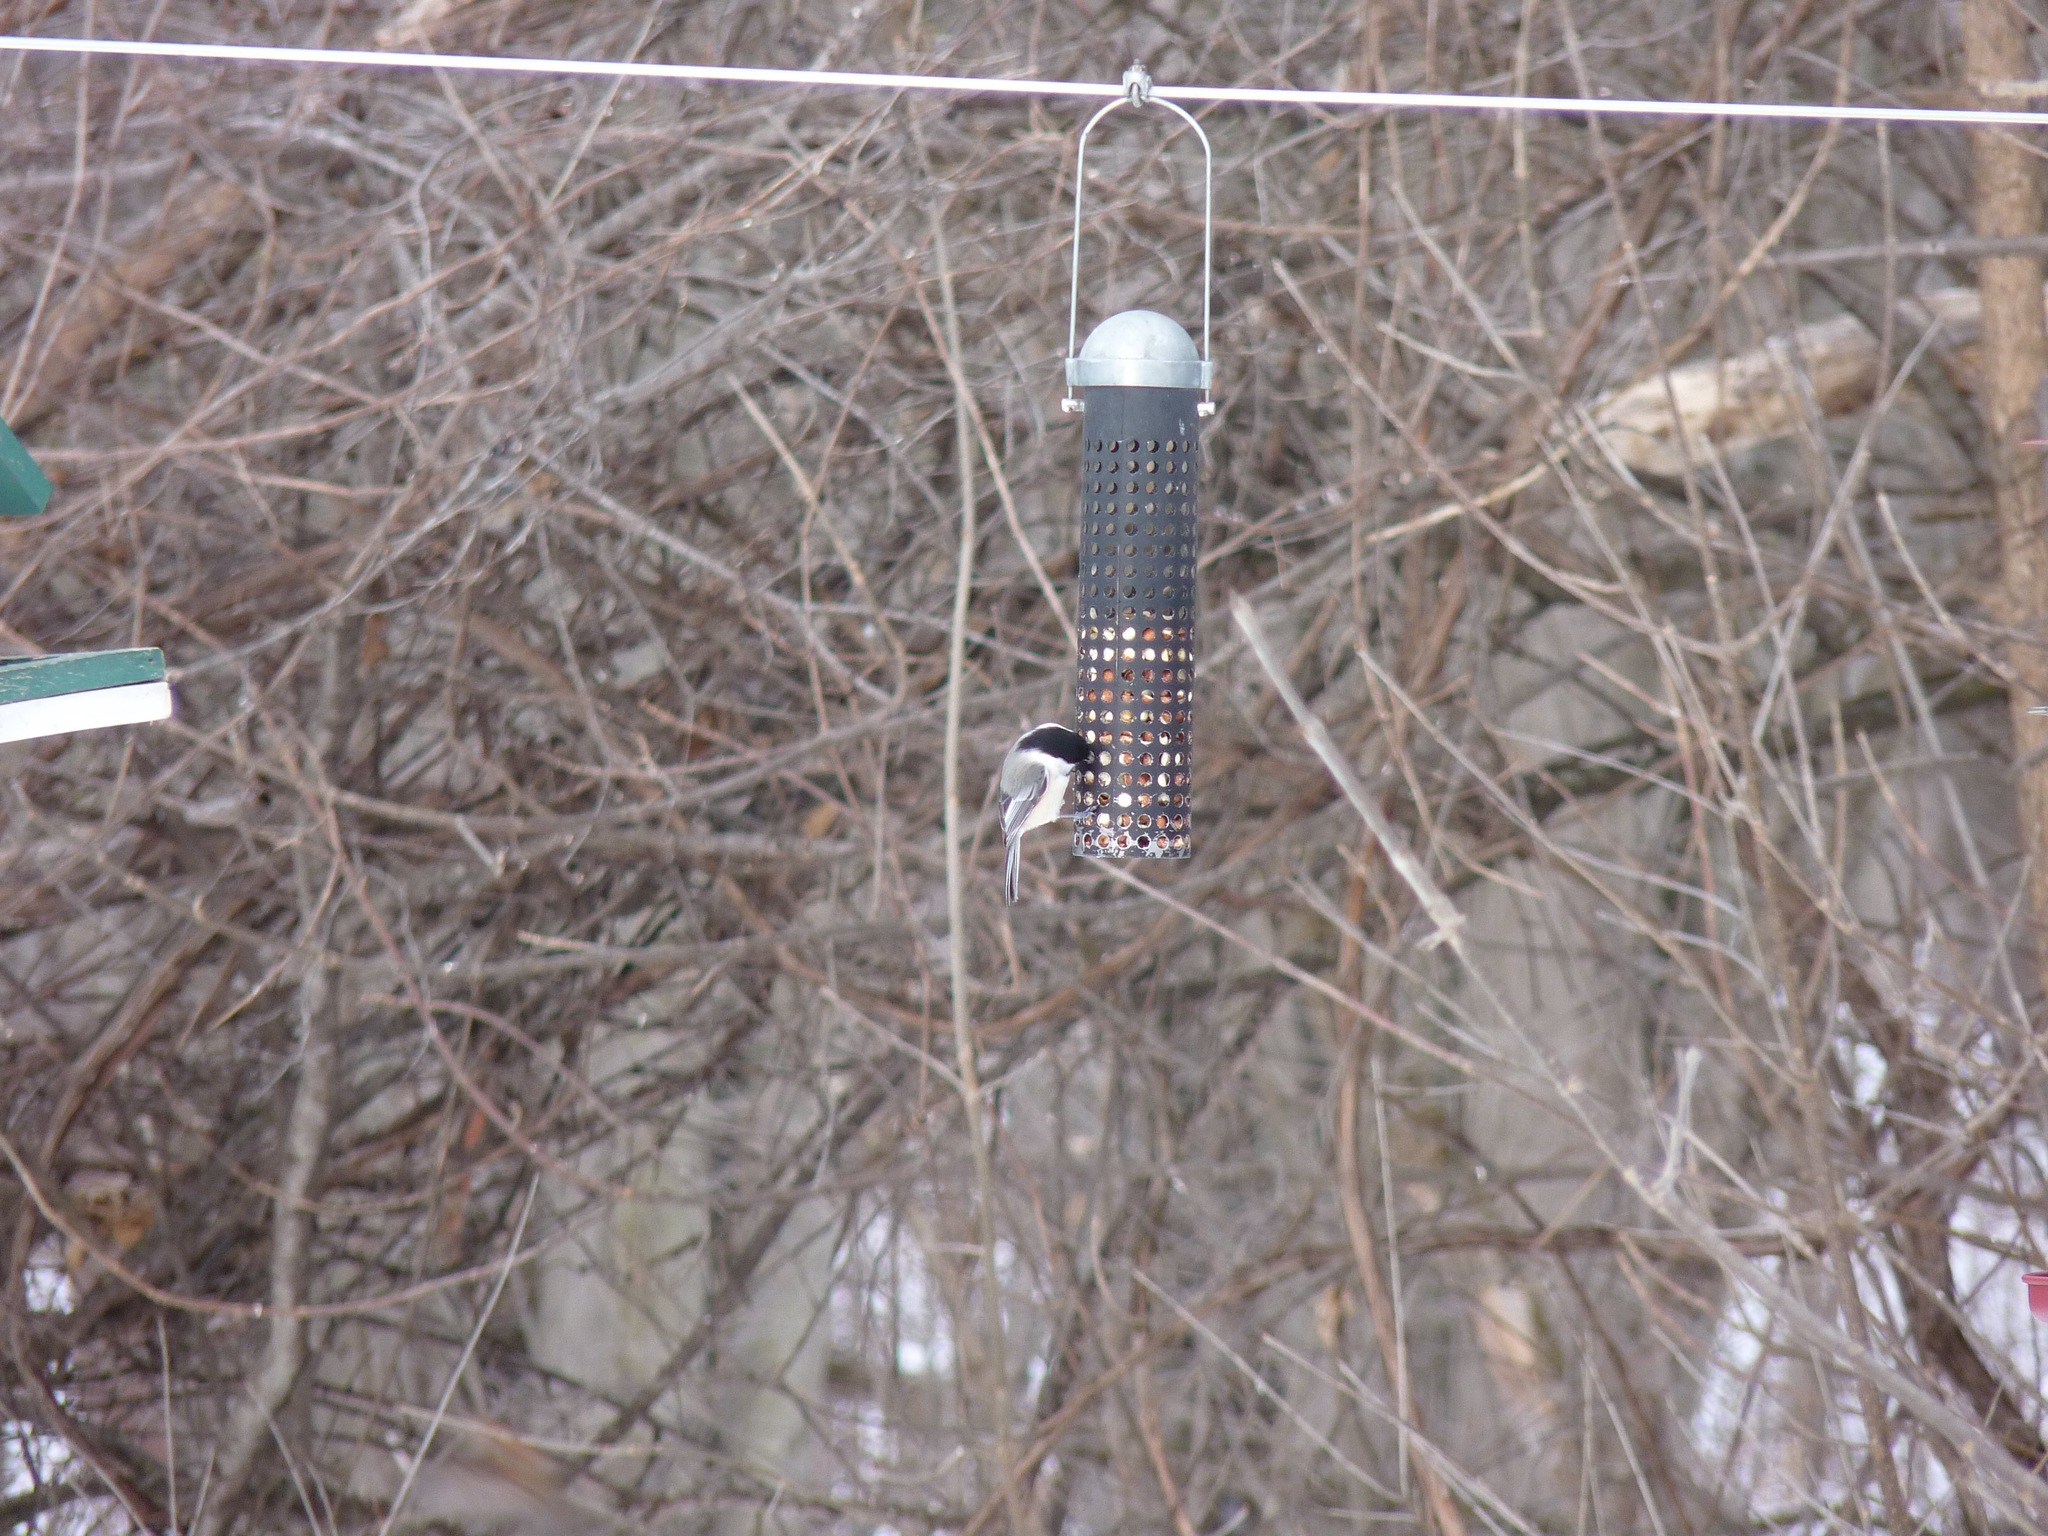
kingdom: Animalia
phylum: Chordata
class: Aves
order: Passeriformes
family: Paridae
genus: Poecile
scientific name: Poecile atricapillus
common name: Black-capped chickadee
